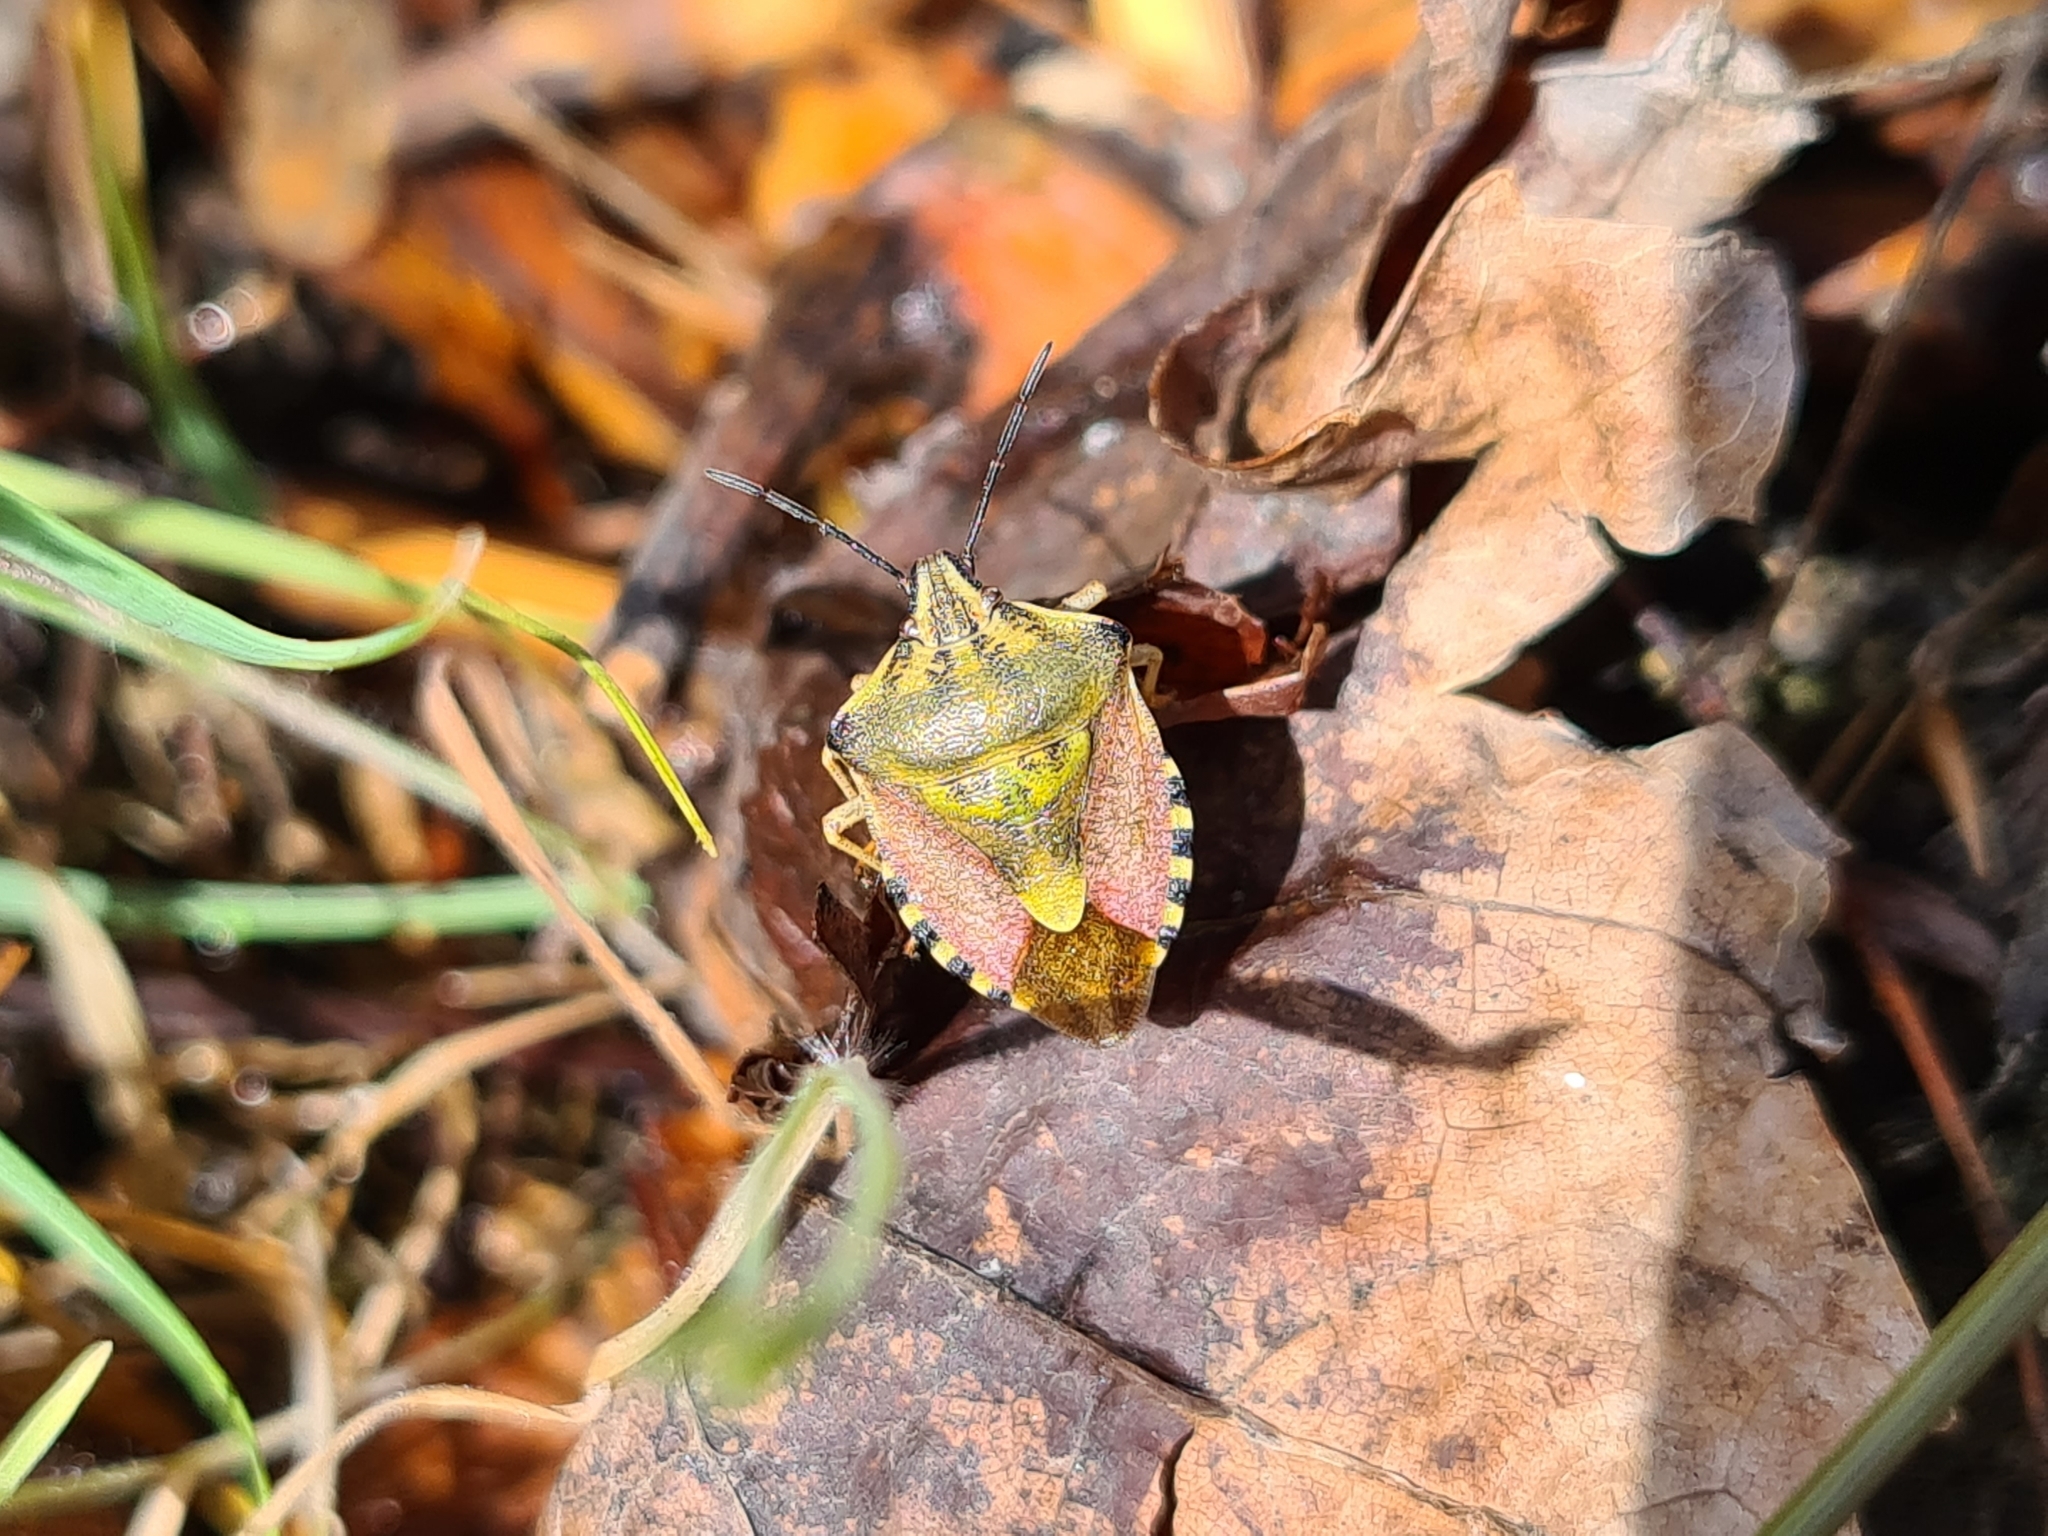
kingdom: Animalia
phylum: Arthropoda
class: Insecta
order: Hemiptera
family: Pentatomidae
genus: Carpocoris
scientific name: Carpocoris purpureipennis
